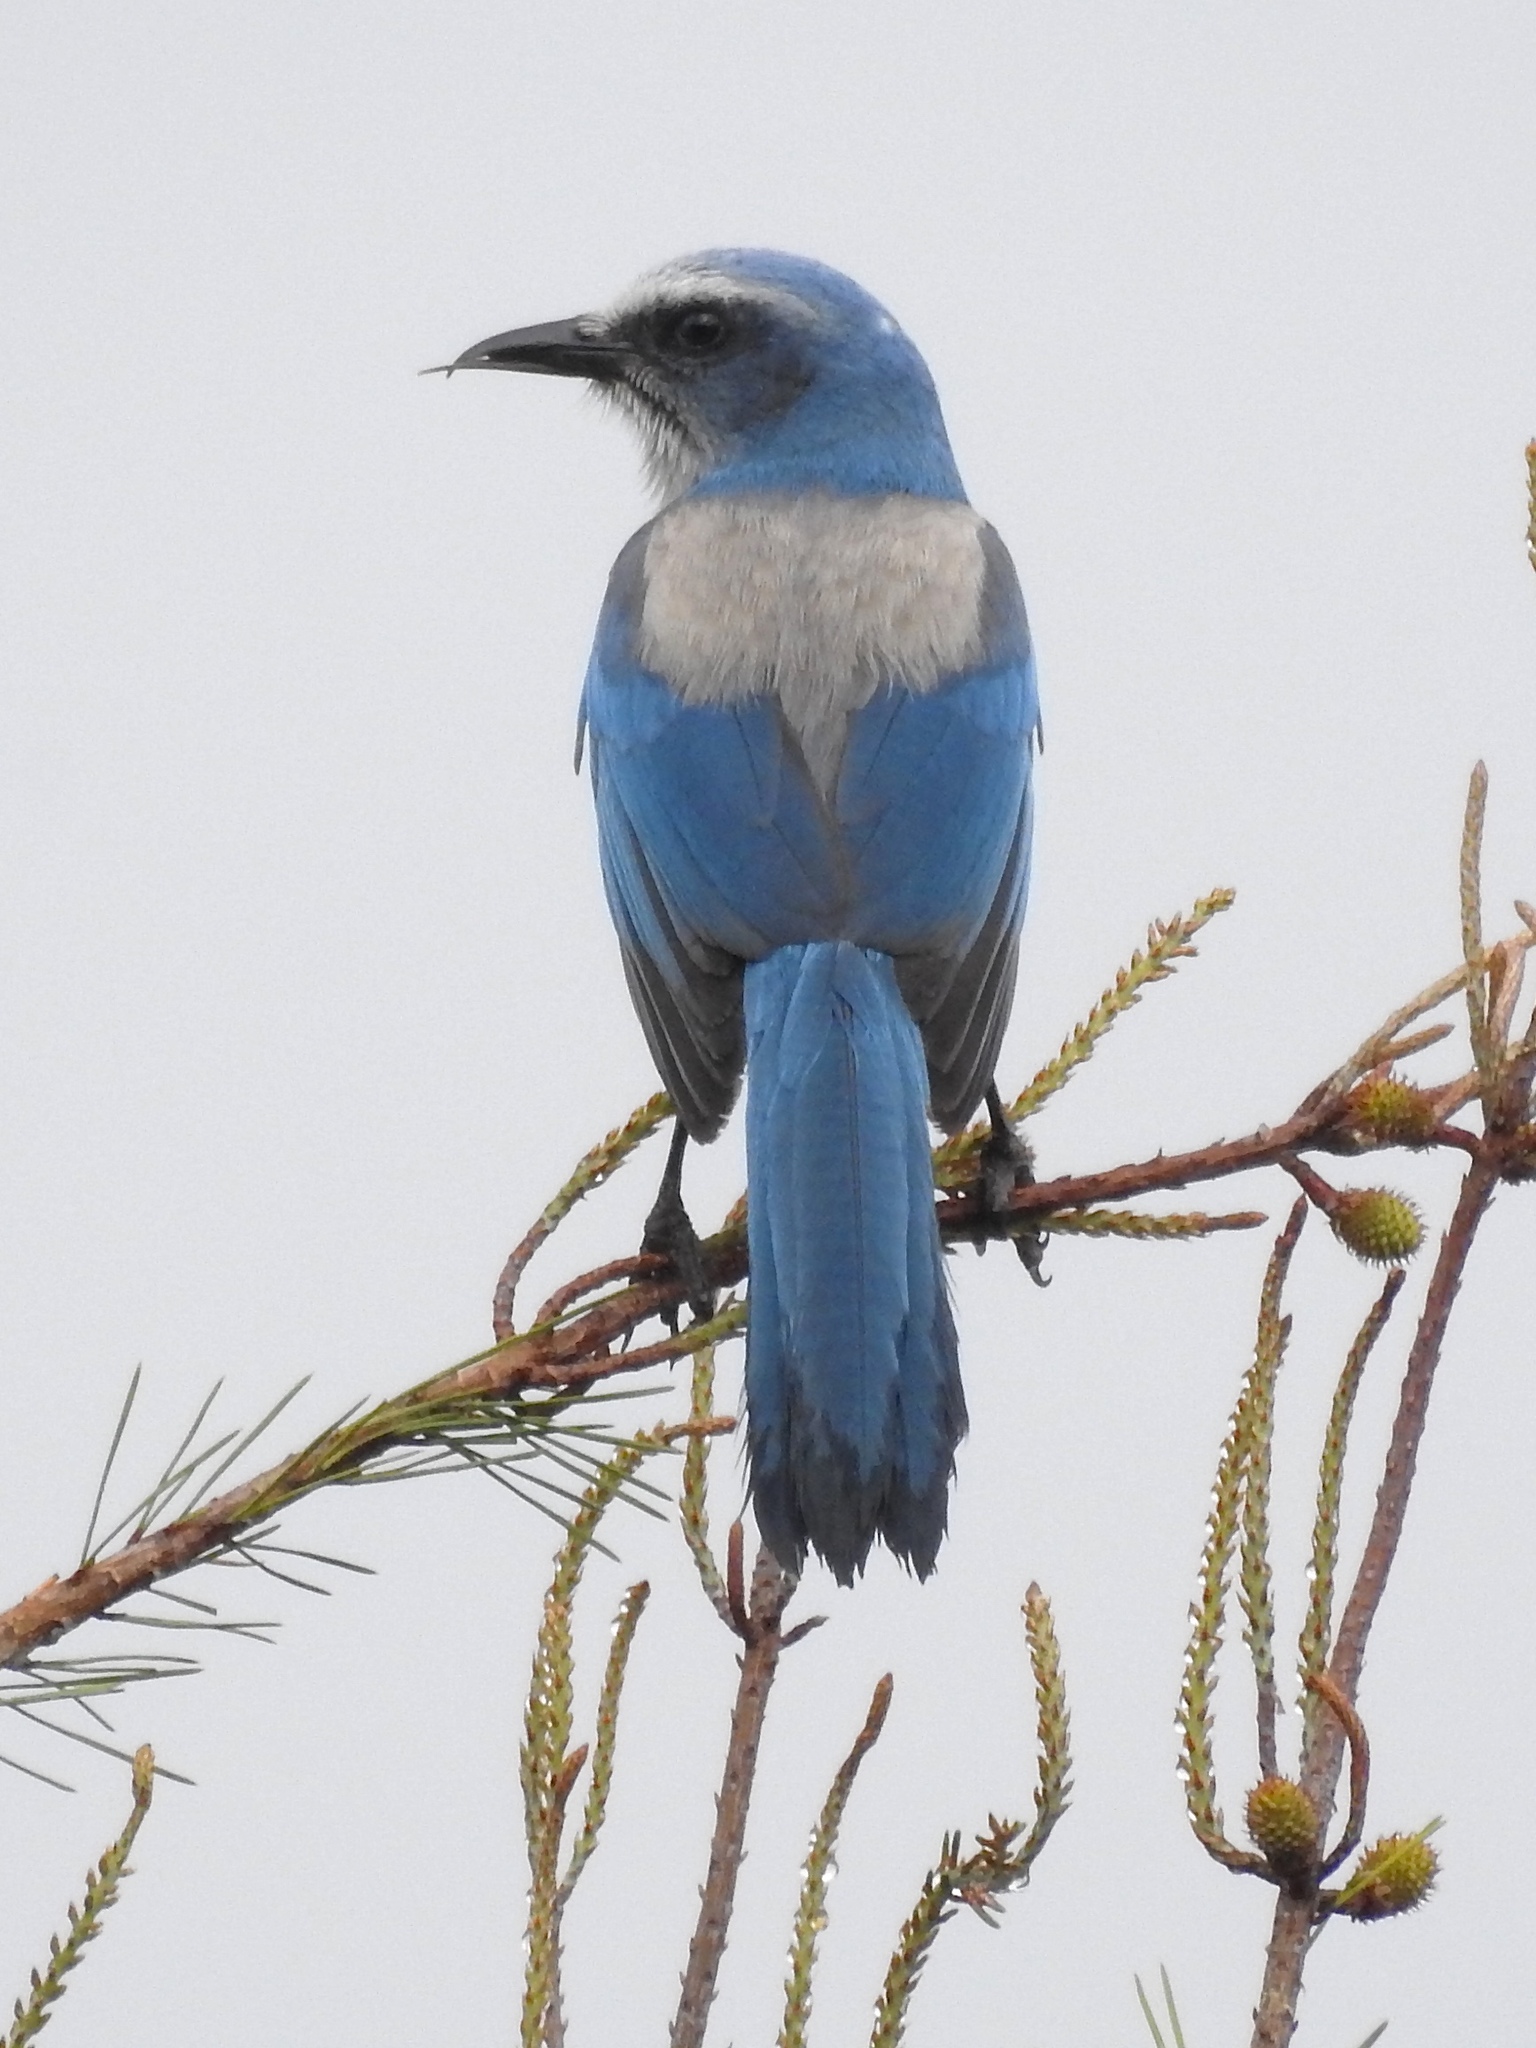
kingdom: Animalia
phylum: Chordata
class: Aves
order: Passeriformes
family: Corvidae
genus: Aphelocoma
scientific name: Aphelocoma coerulescens
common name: Florida scrub jay
